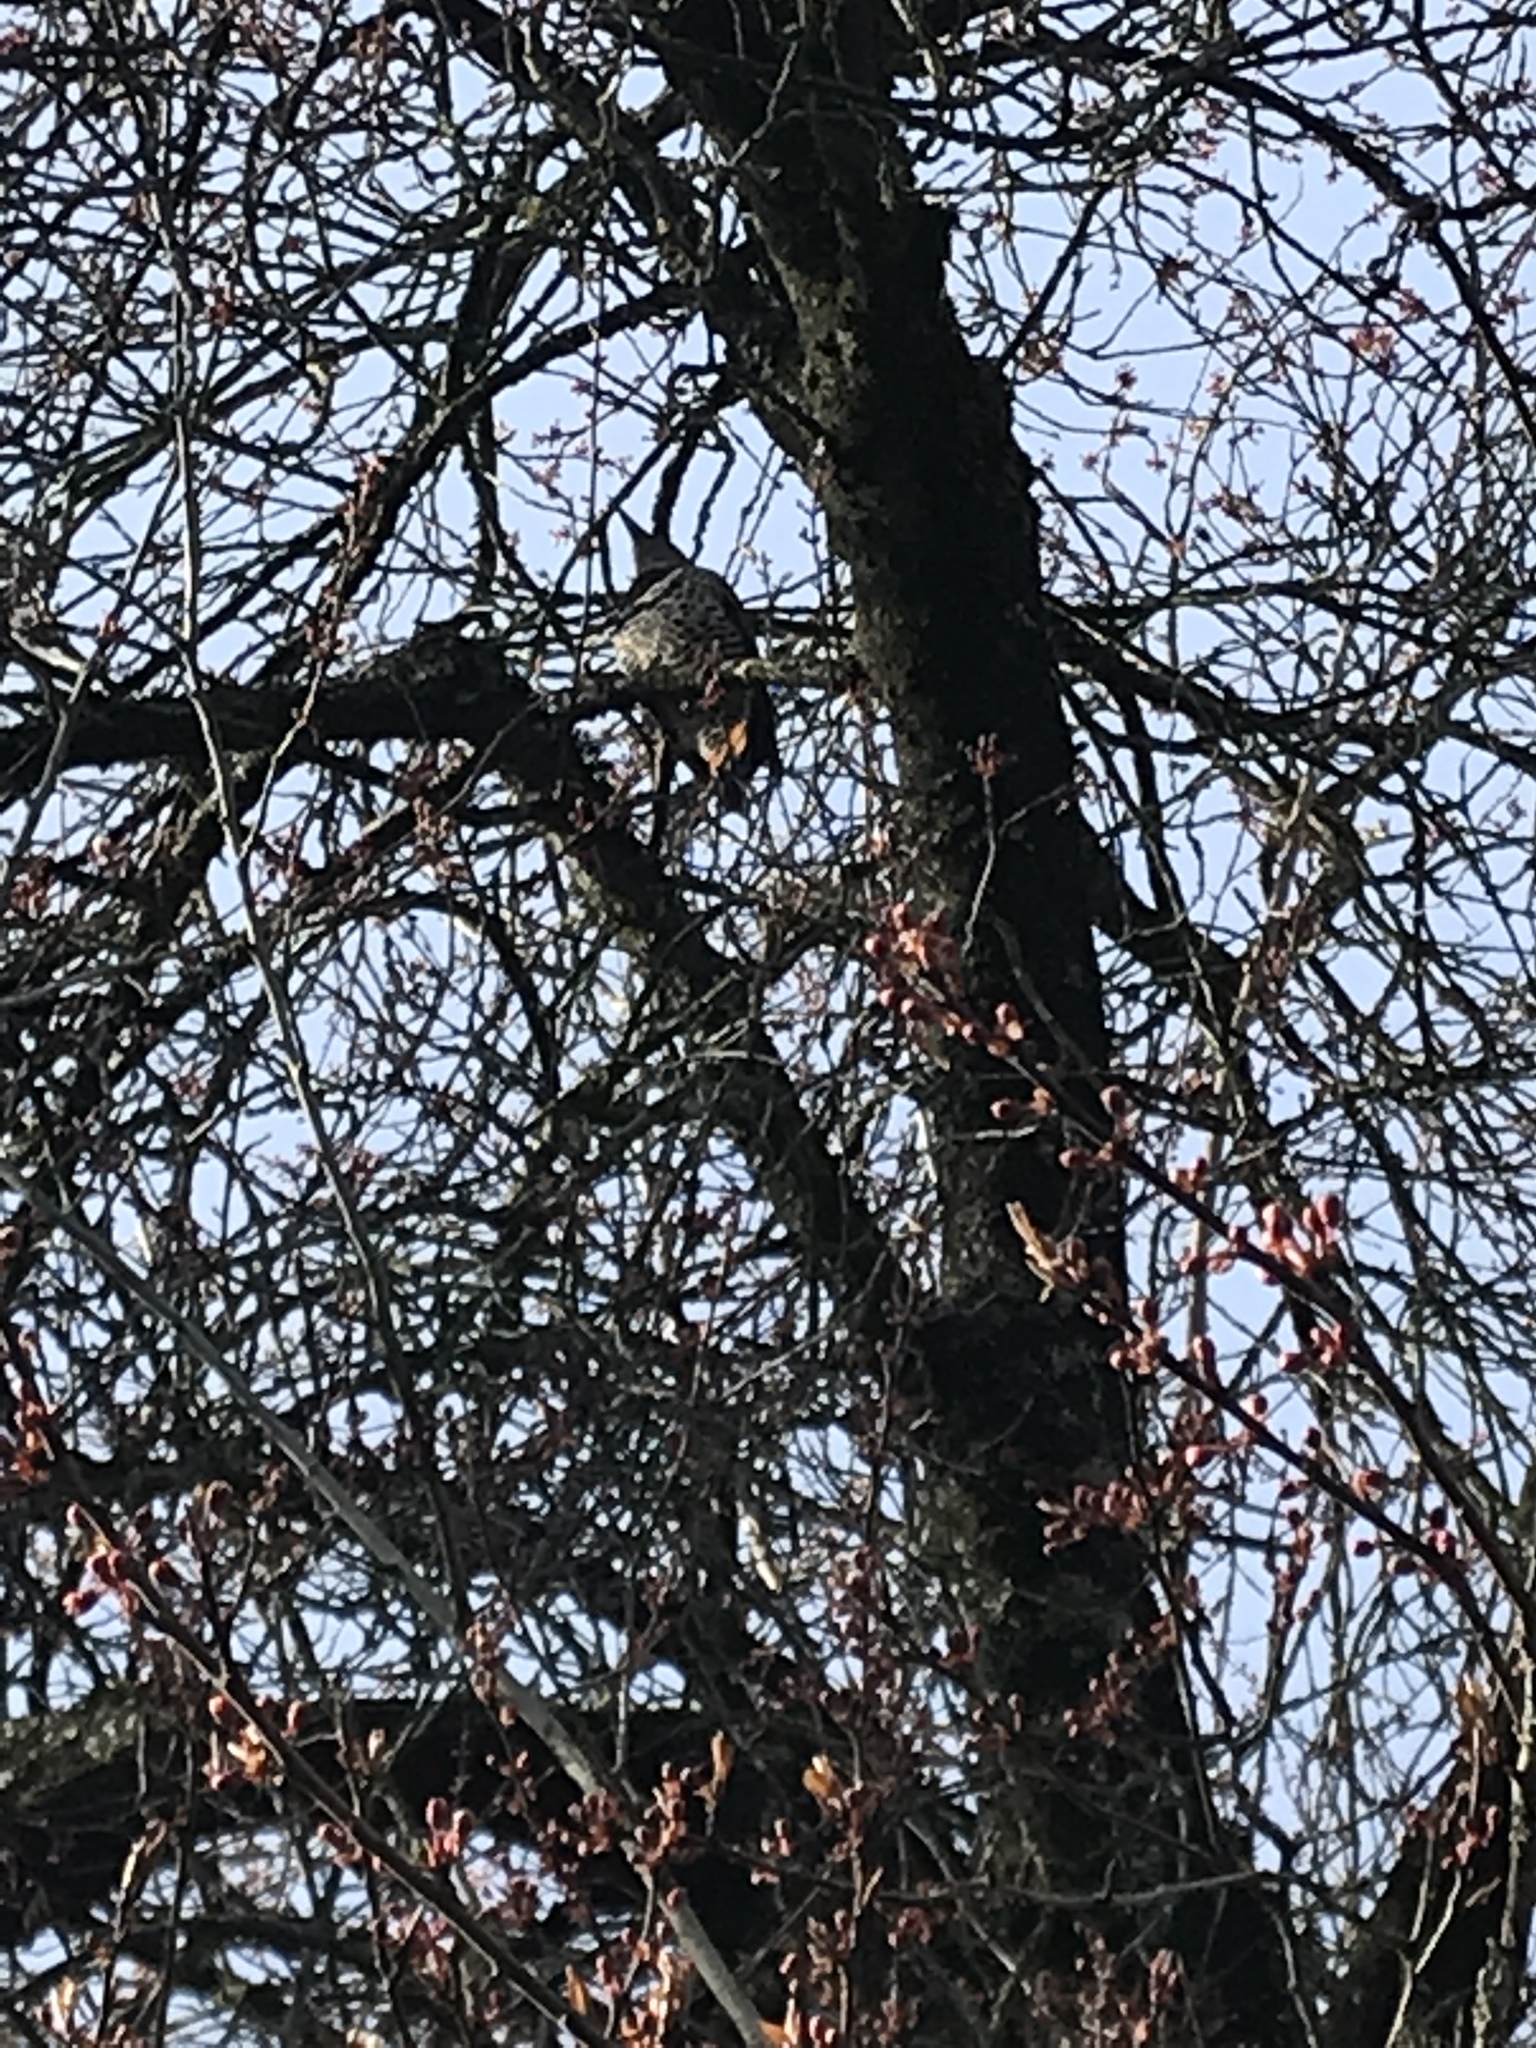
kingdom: Animalia
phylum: Chordata
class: Aves
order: Piciformes
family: Picidae
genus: Colaptes
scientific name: Colaptes auratus
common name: Northern flicker
